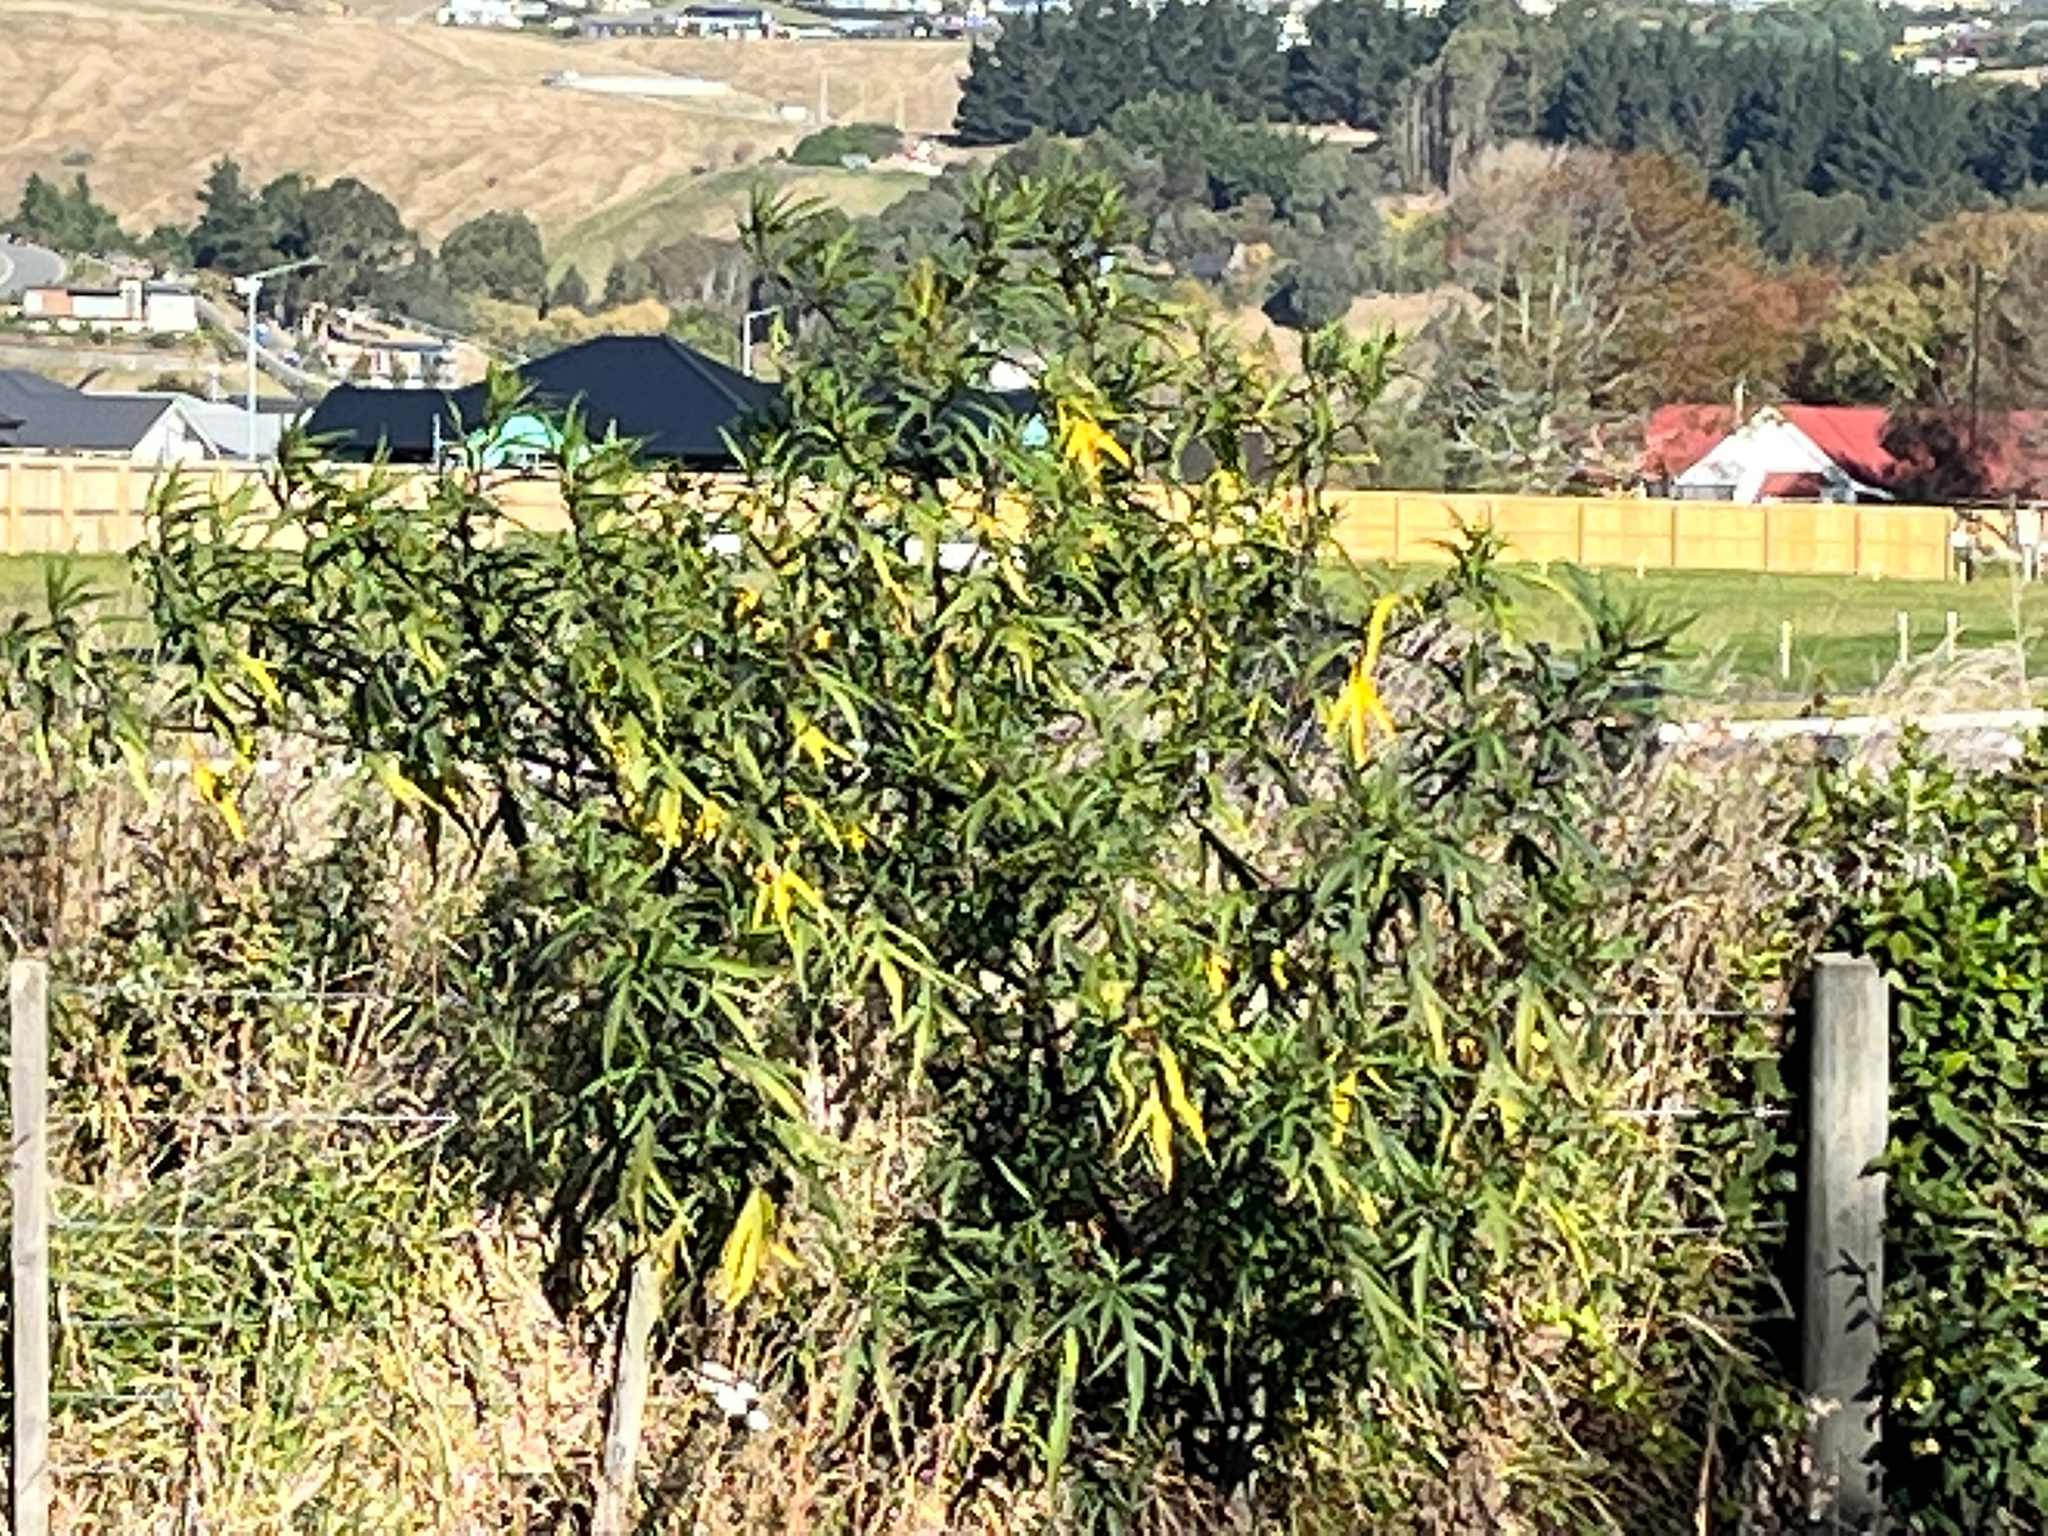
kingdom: Plantae
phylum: Tracheophyta
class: Magnoliopsida
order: Solanales
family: Solanaceae
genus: Solanum
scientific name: Solanum laciniatum
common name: Kangaroo-apple
